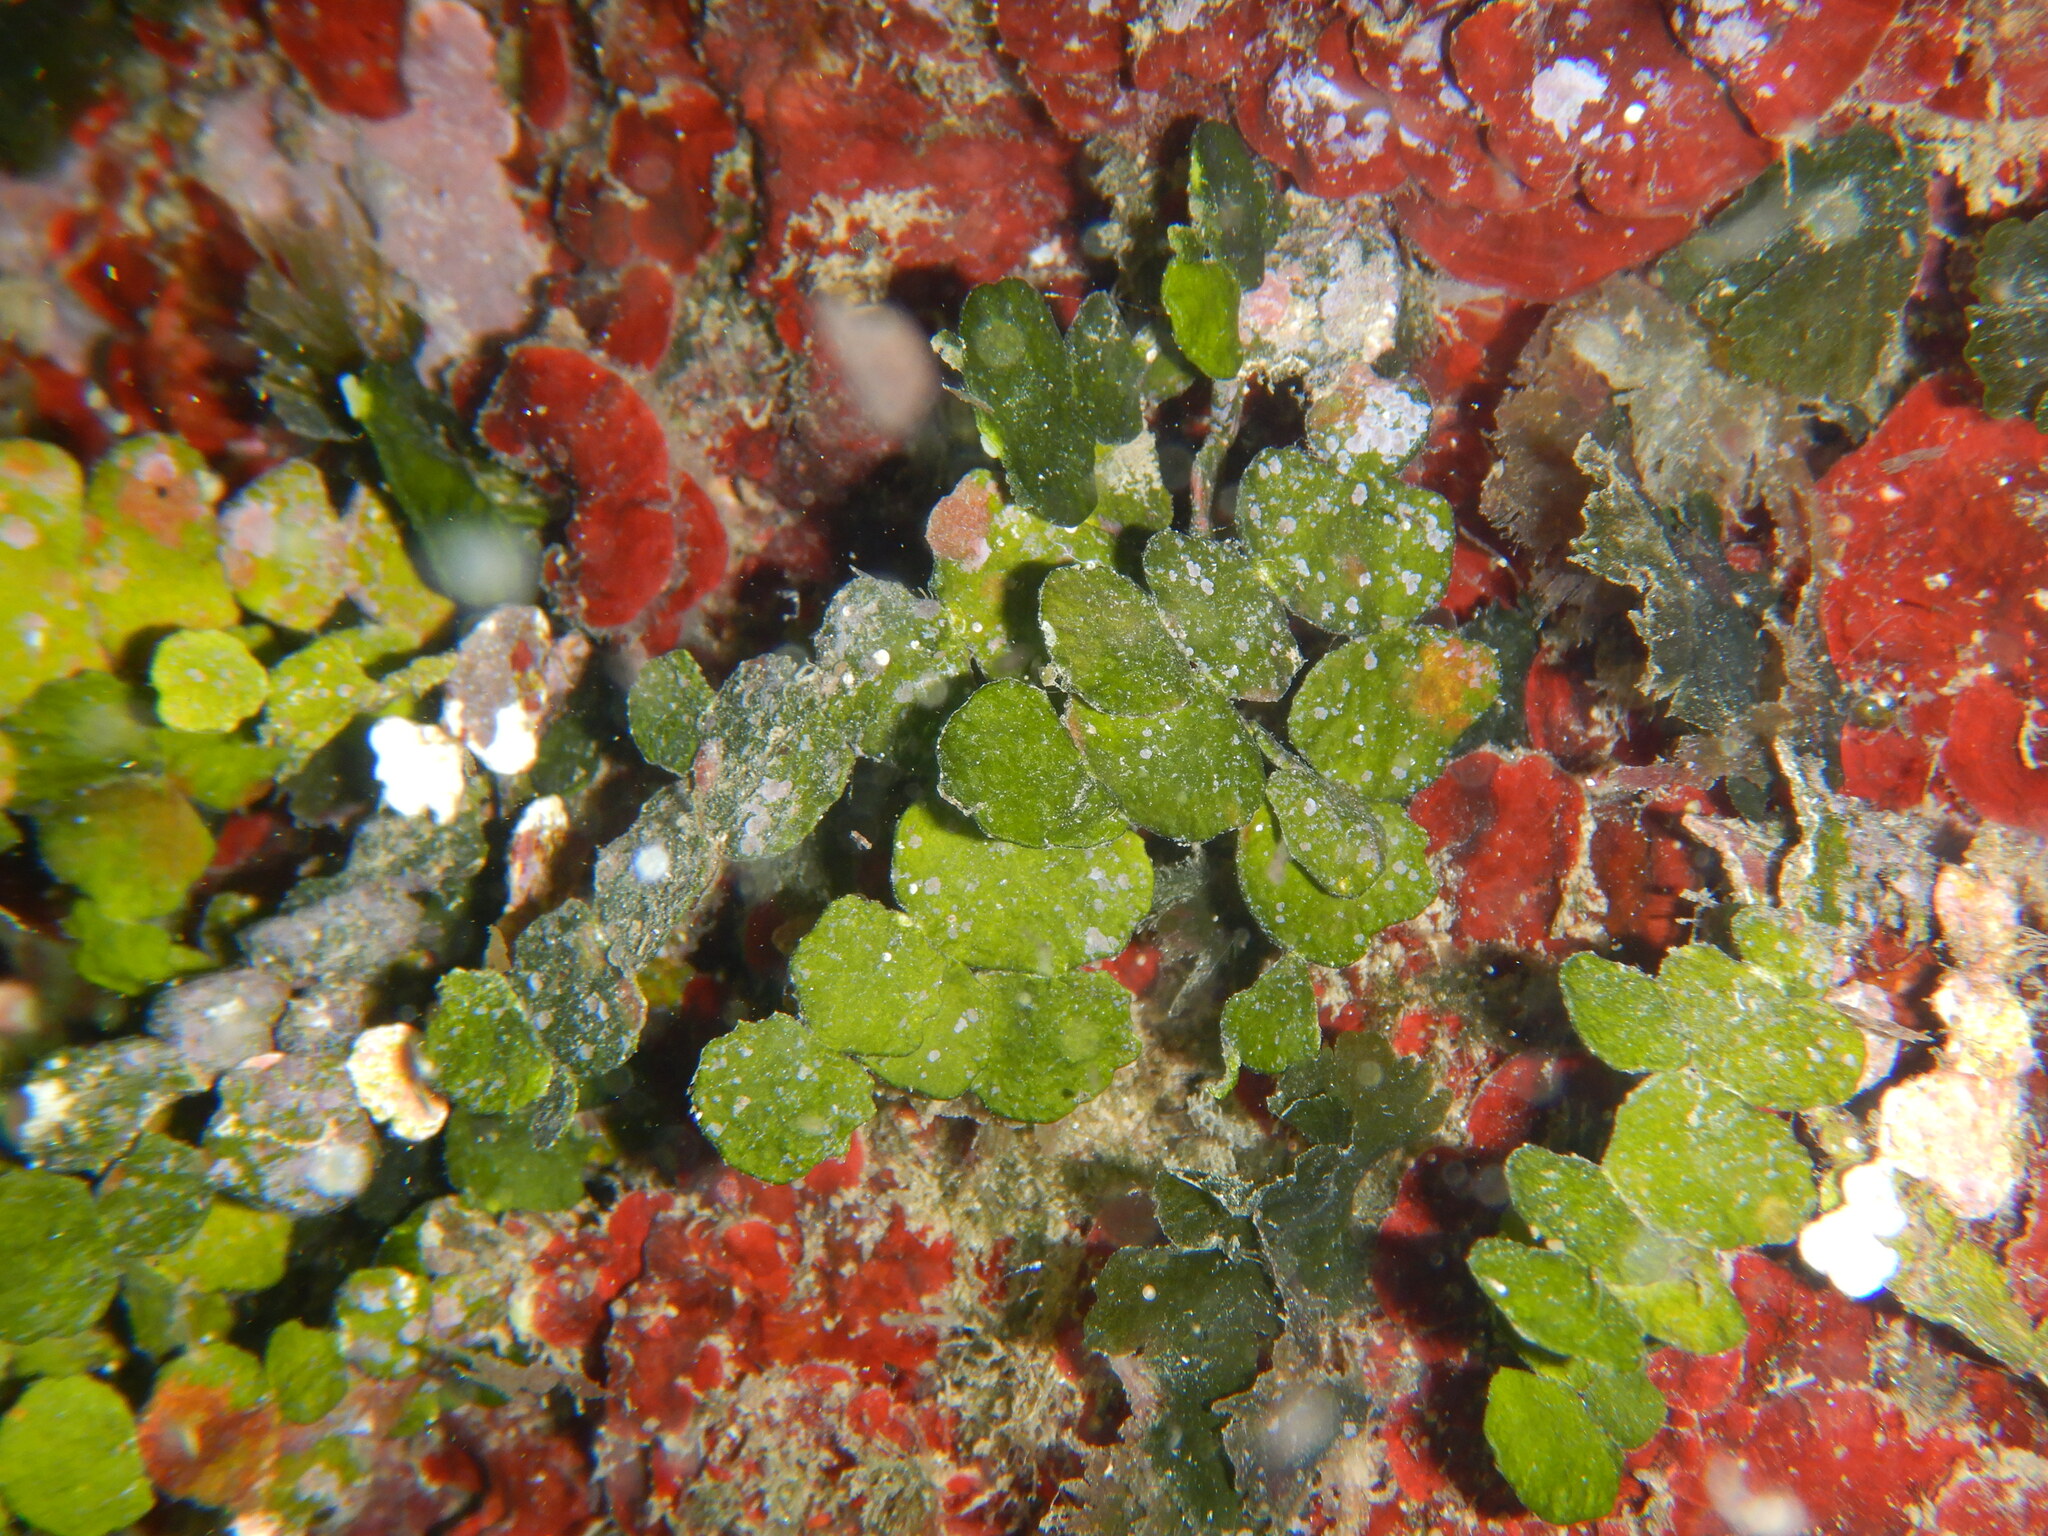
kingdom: Plantae
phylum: Chlorophyta
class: Ulvophyceae
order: Bryopsidales
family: Halimedaceae
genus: Halimeda
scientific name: Halimeda tuna
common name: Stalked lettuce leaf algae
